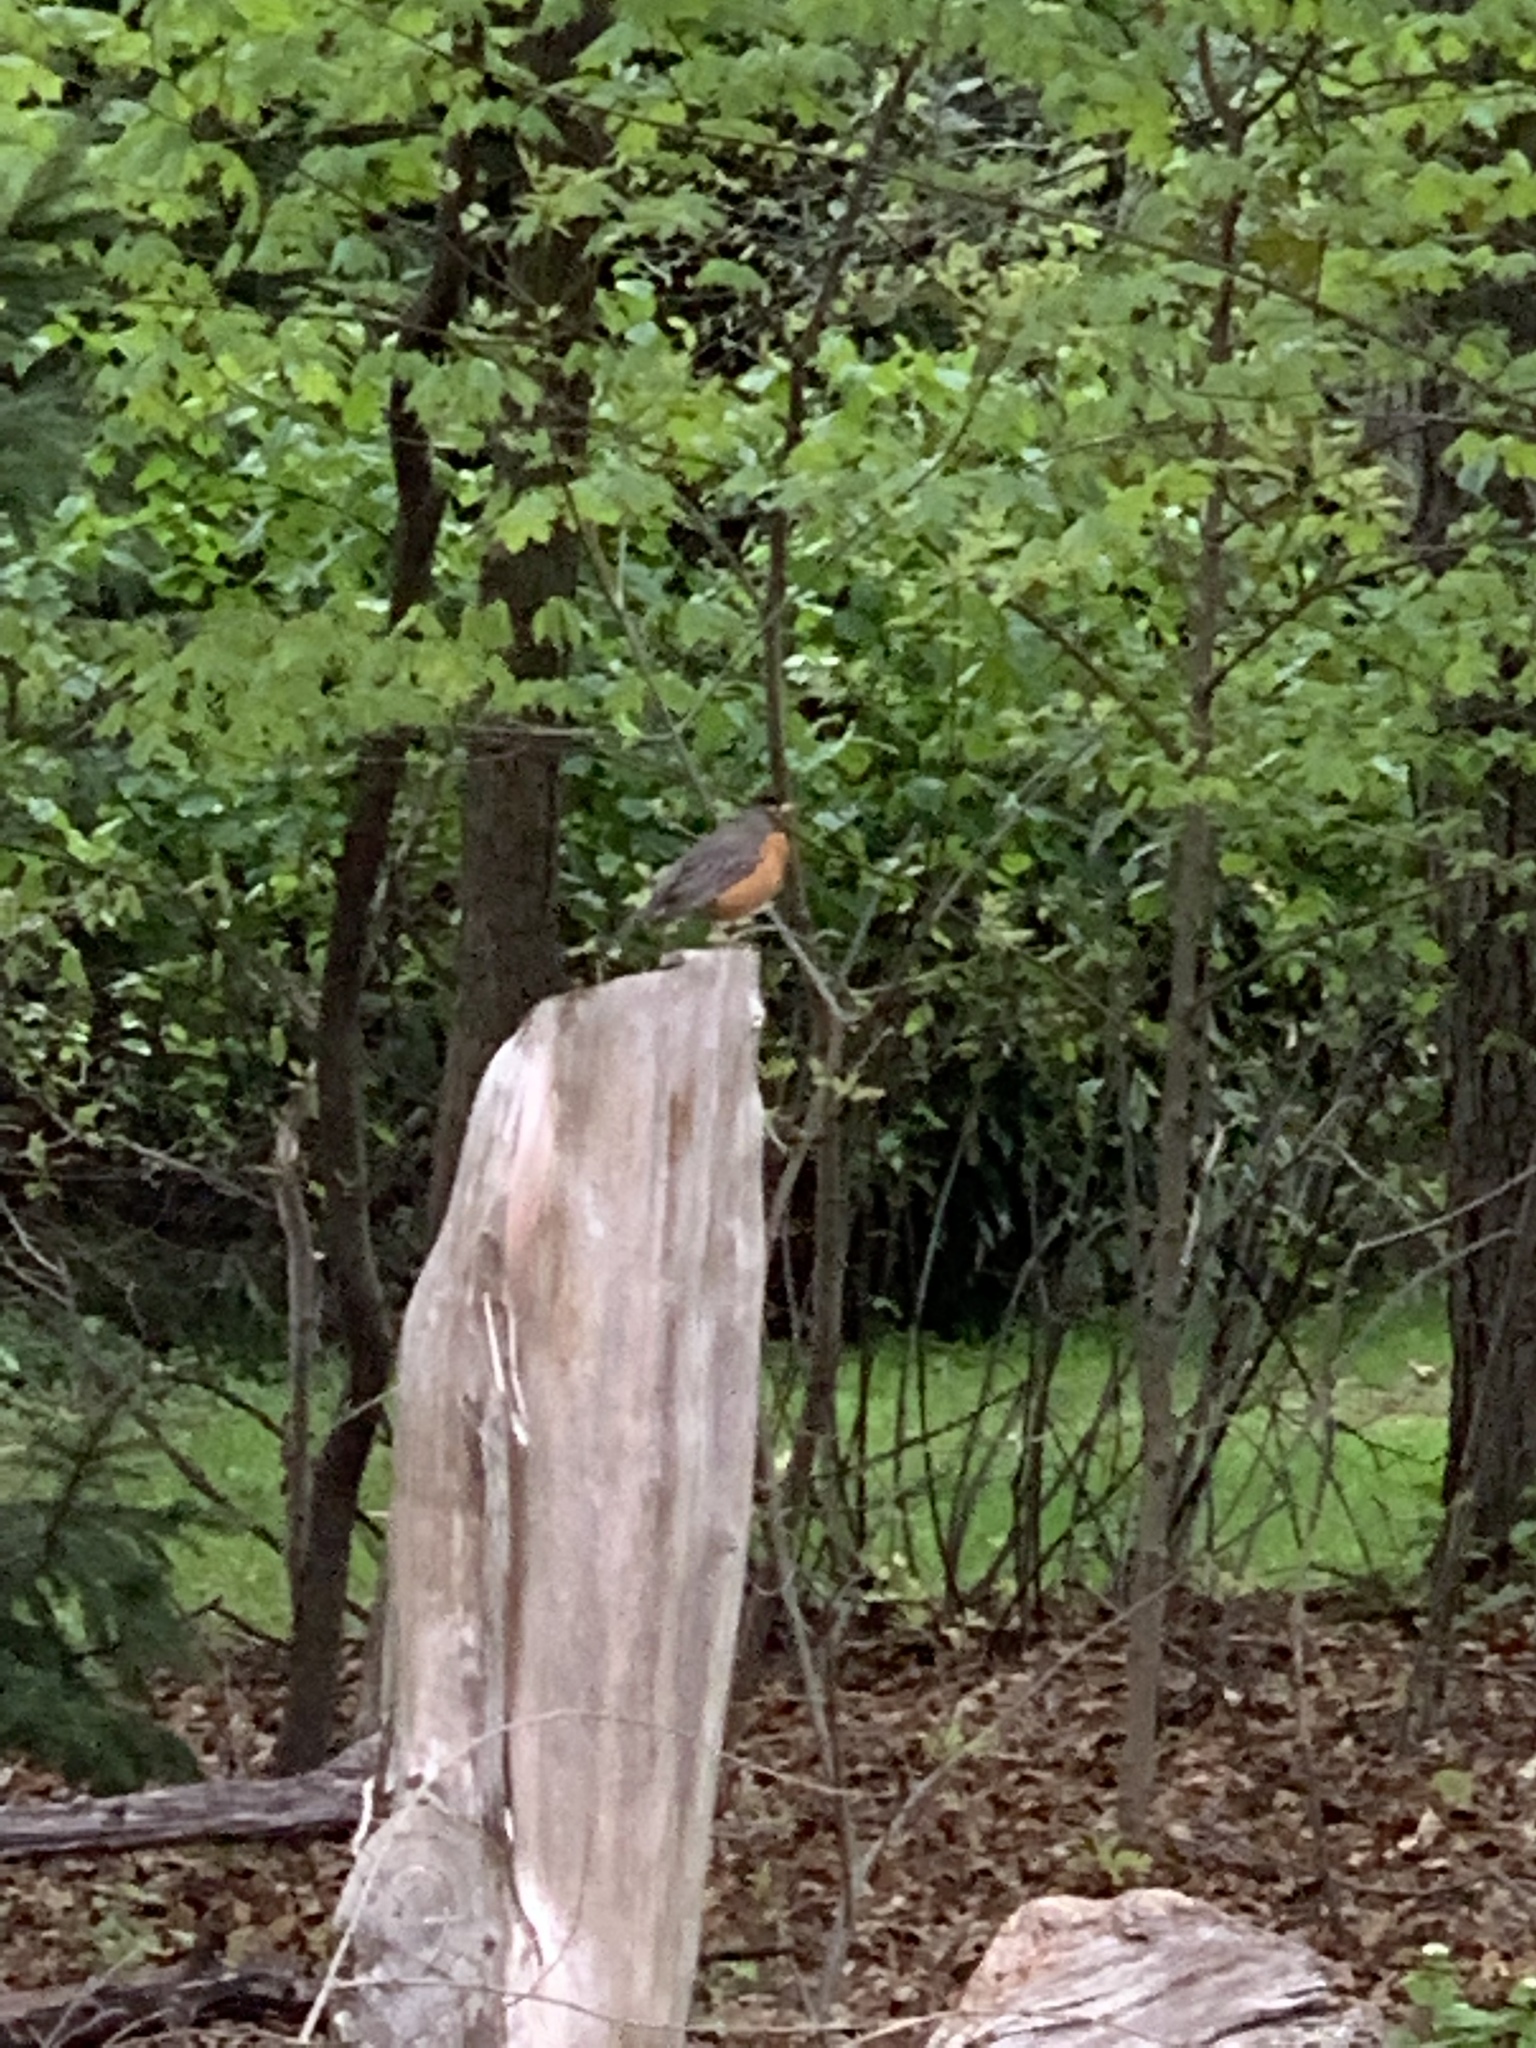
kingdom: Animalia
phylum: Chordata
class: Aves
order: Passeriformes
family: Turdidae
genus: Turdus
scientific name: Turdus migratorius
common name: American robin
